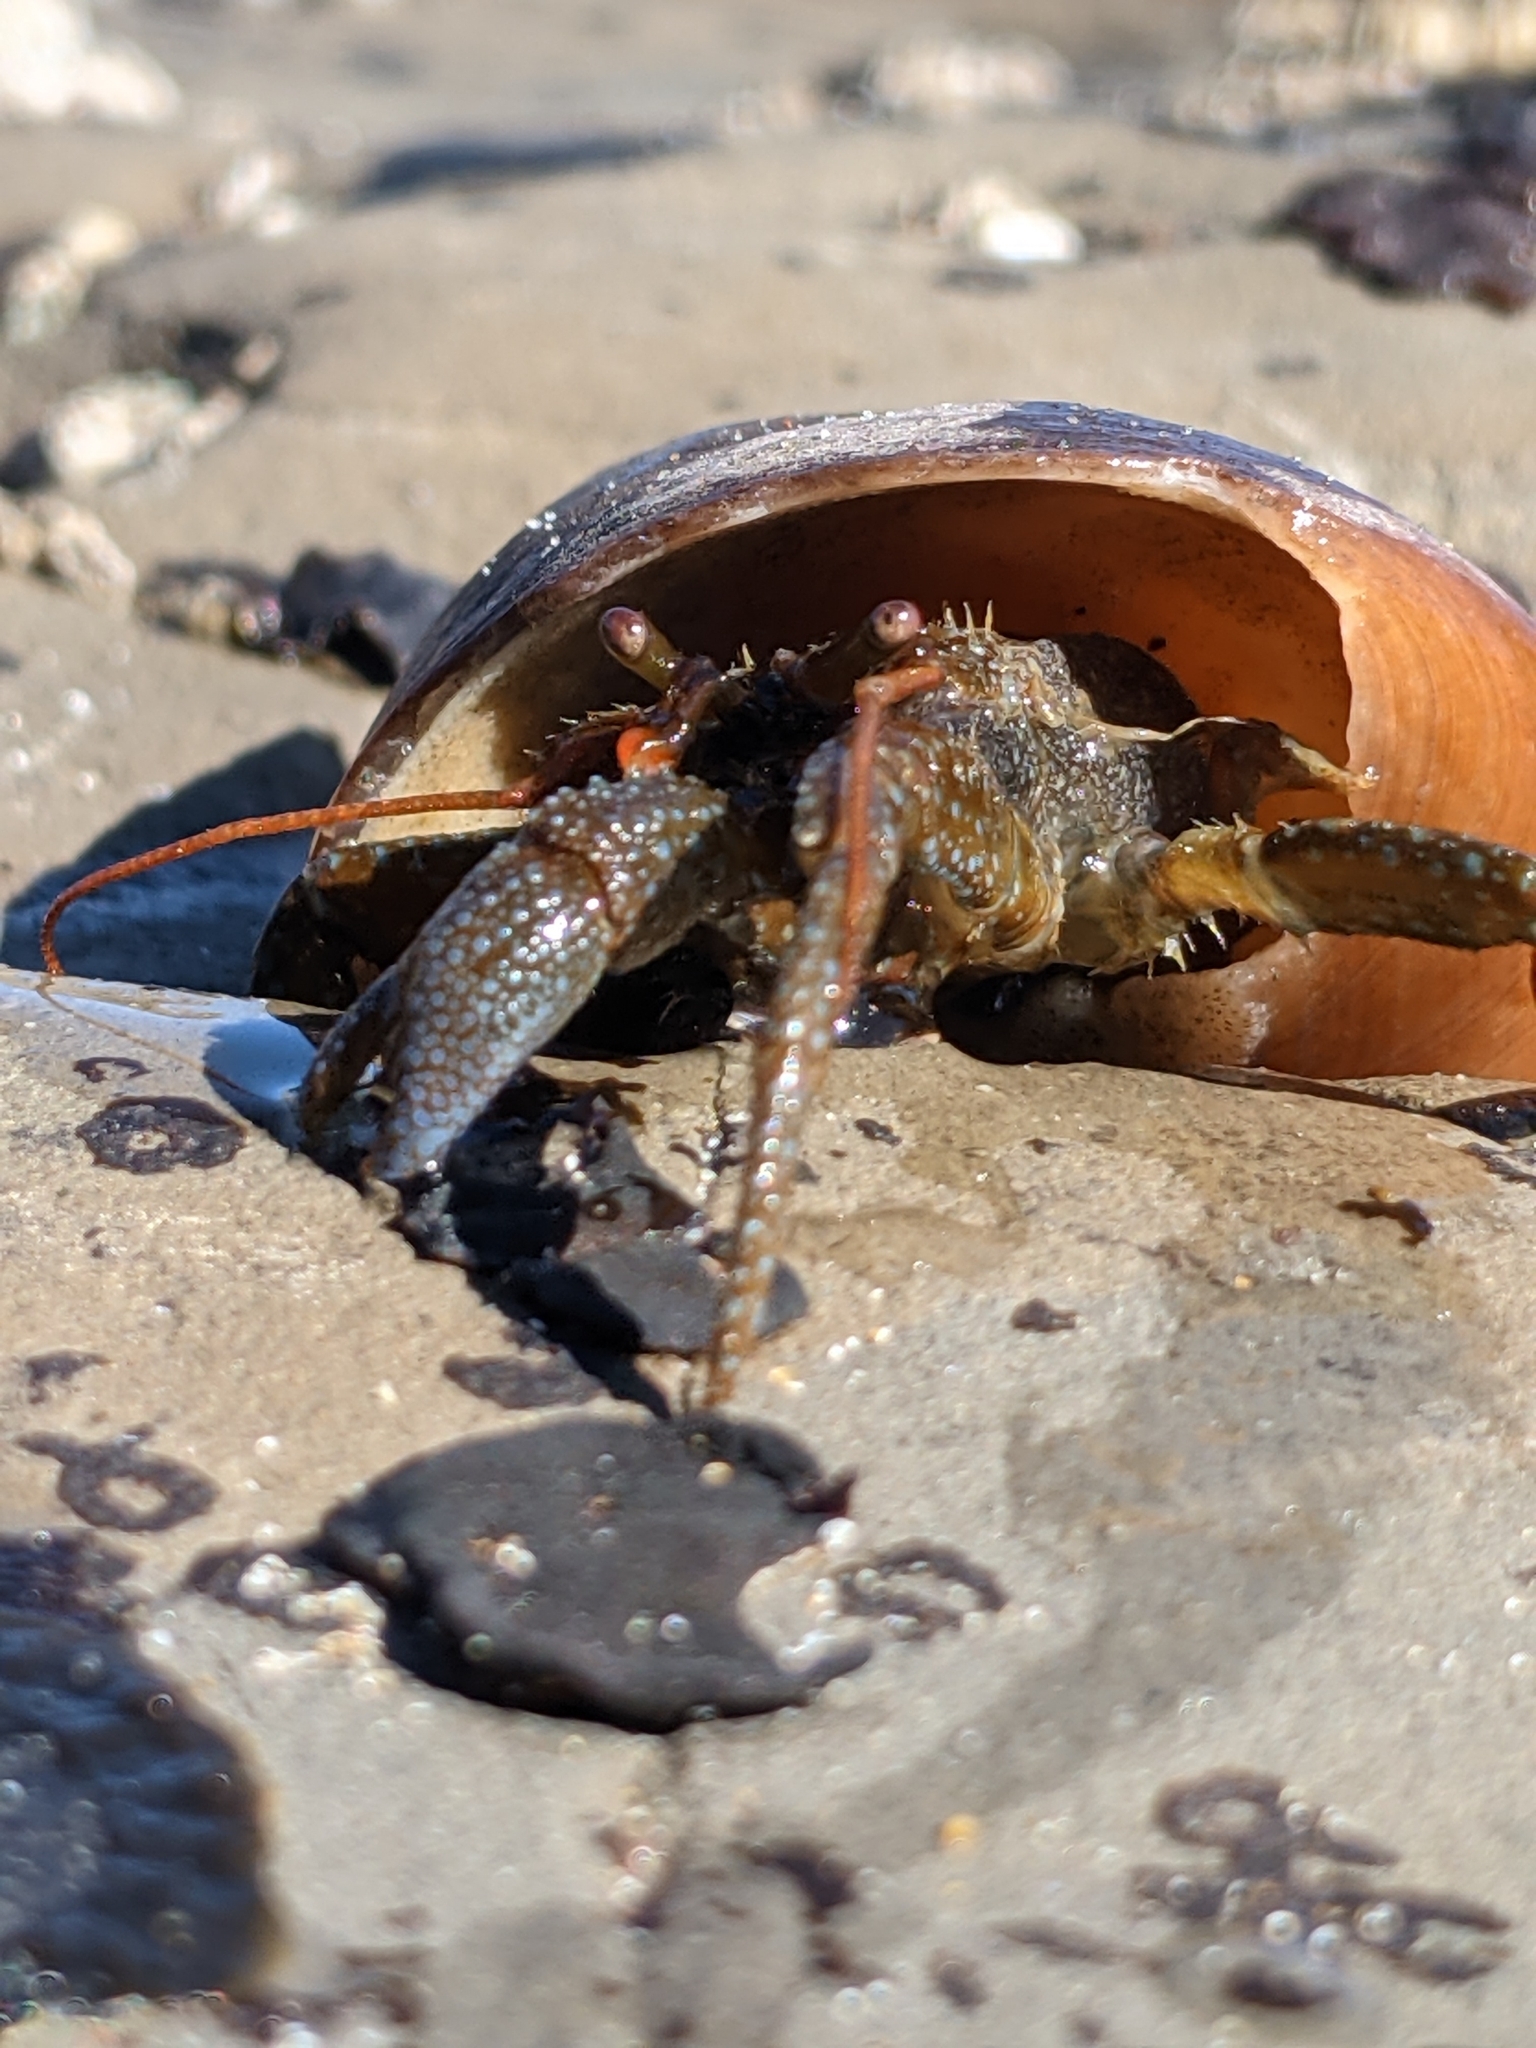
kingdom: Animalia
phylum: Arthropoda
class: Malacostraca
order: Decapoda
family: Paguridae
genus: Pagurus
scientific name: Pagurus granosimanus
